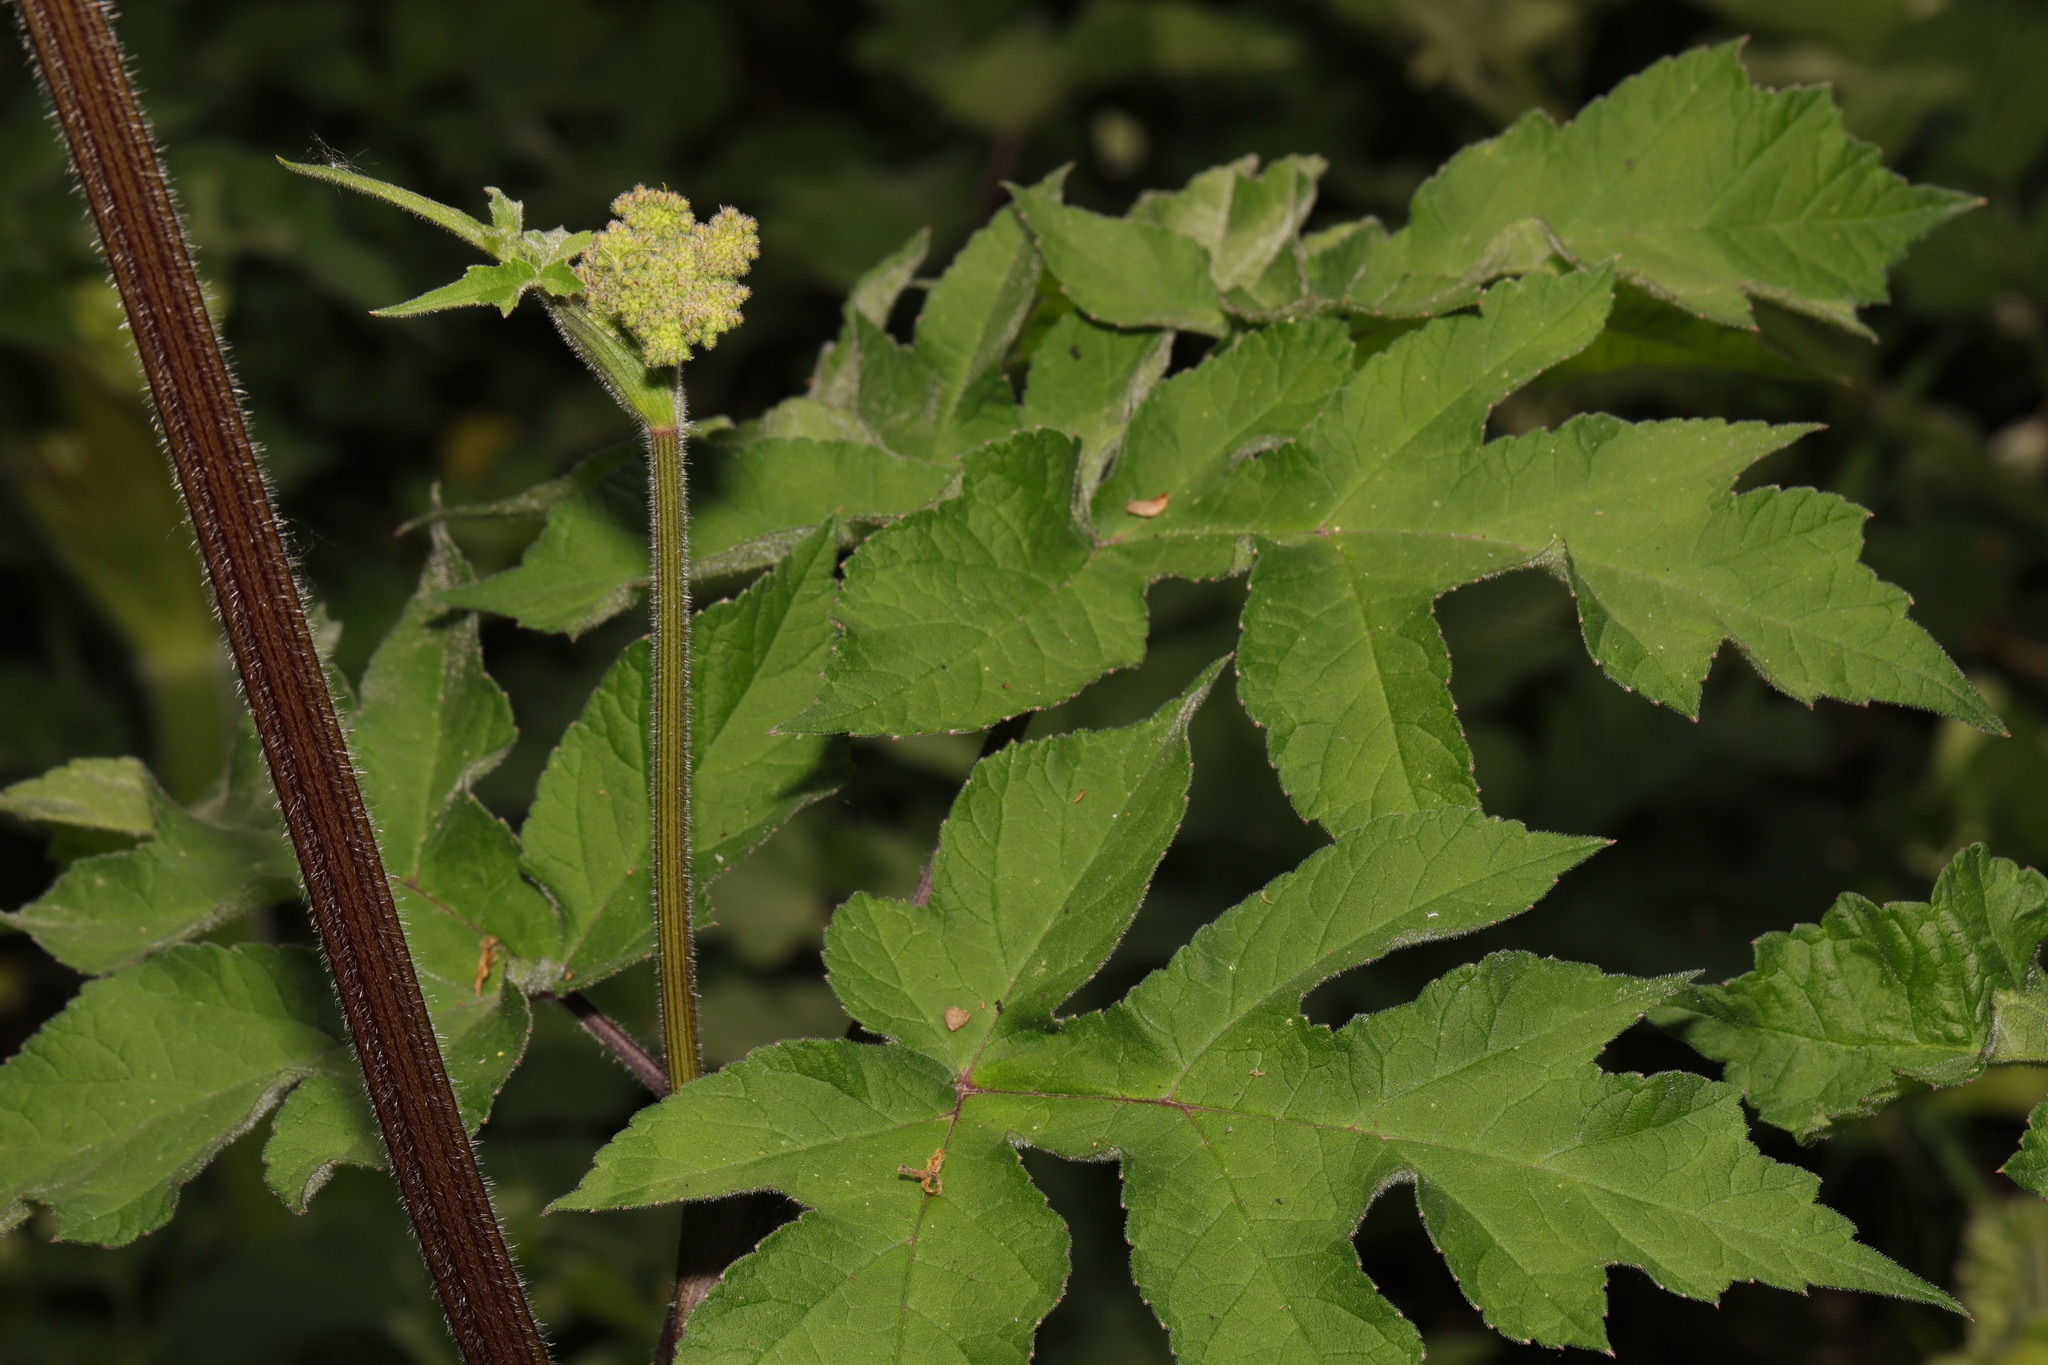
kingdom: Plantae
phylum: Tracheophyta
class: Magnoliopsida
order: Apiales
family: Apiaceae
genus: Heracleum
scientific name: Heracleum sphondylium
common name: Hogweed
